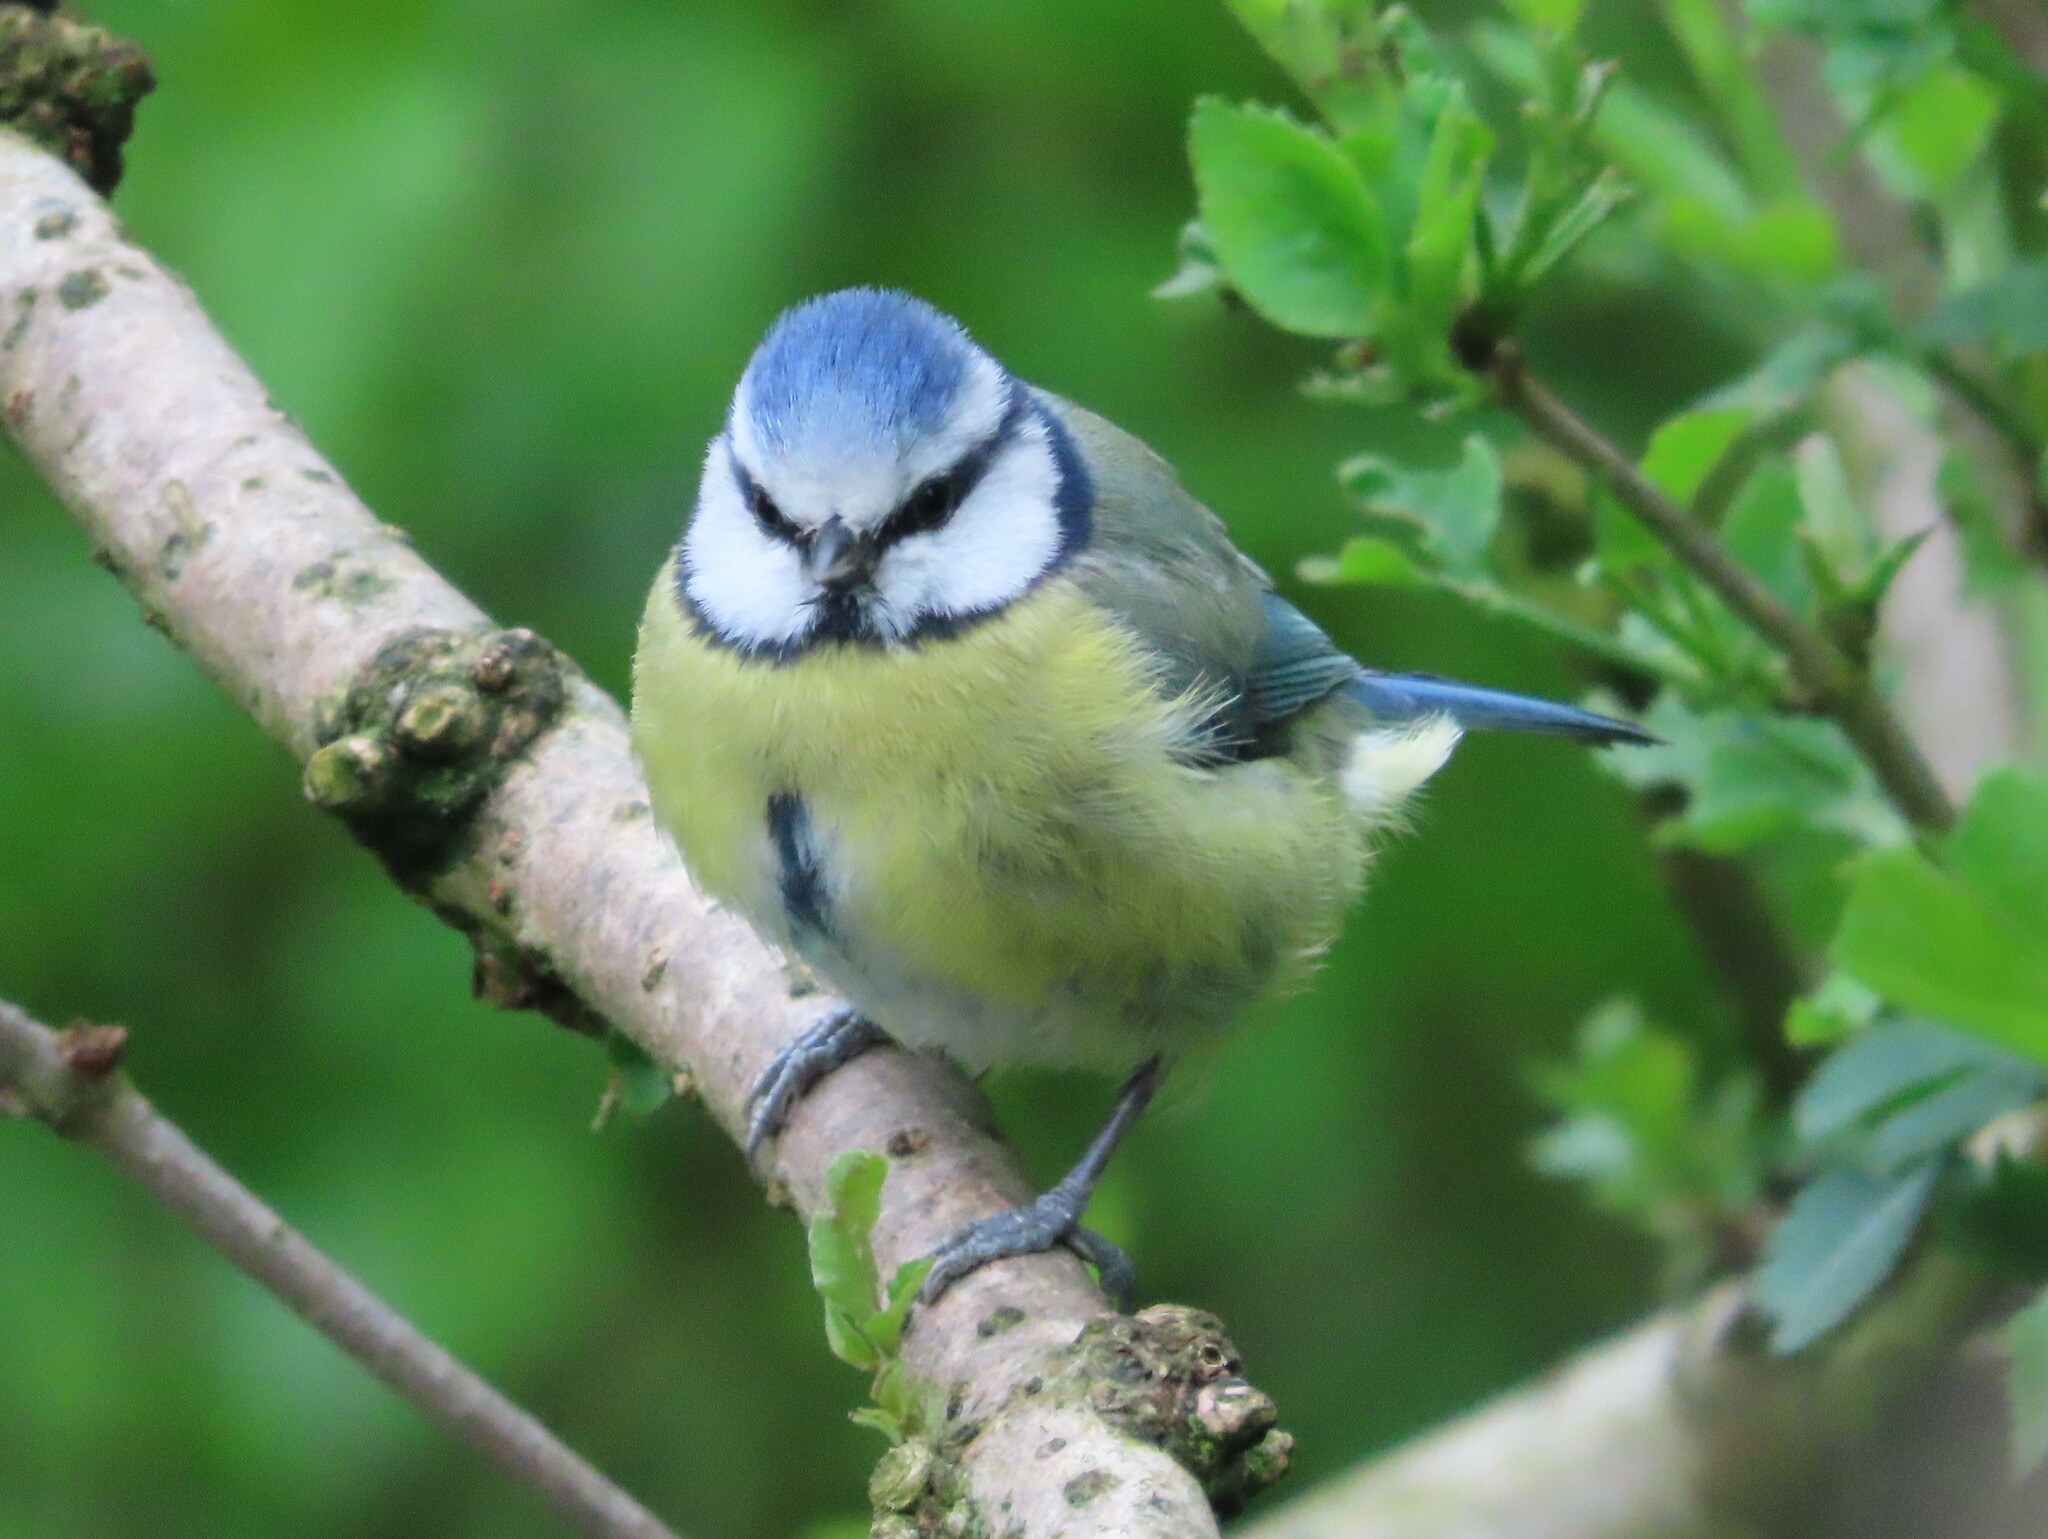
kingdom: Animalia
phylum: Chordata
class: Aves
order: Passeriformes
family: Paridae
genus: Cyanistes
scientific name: Cyanistes caeruleus
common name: Eurasian blue tit
